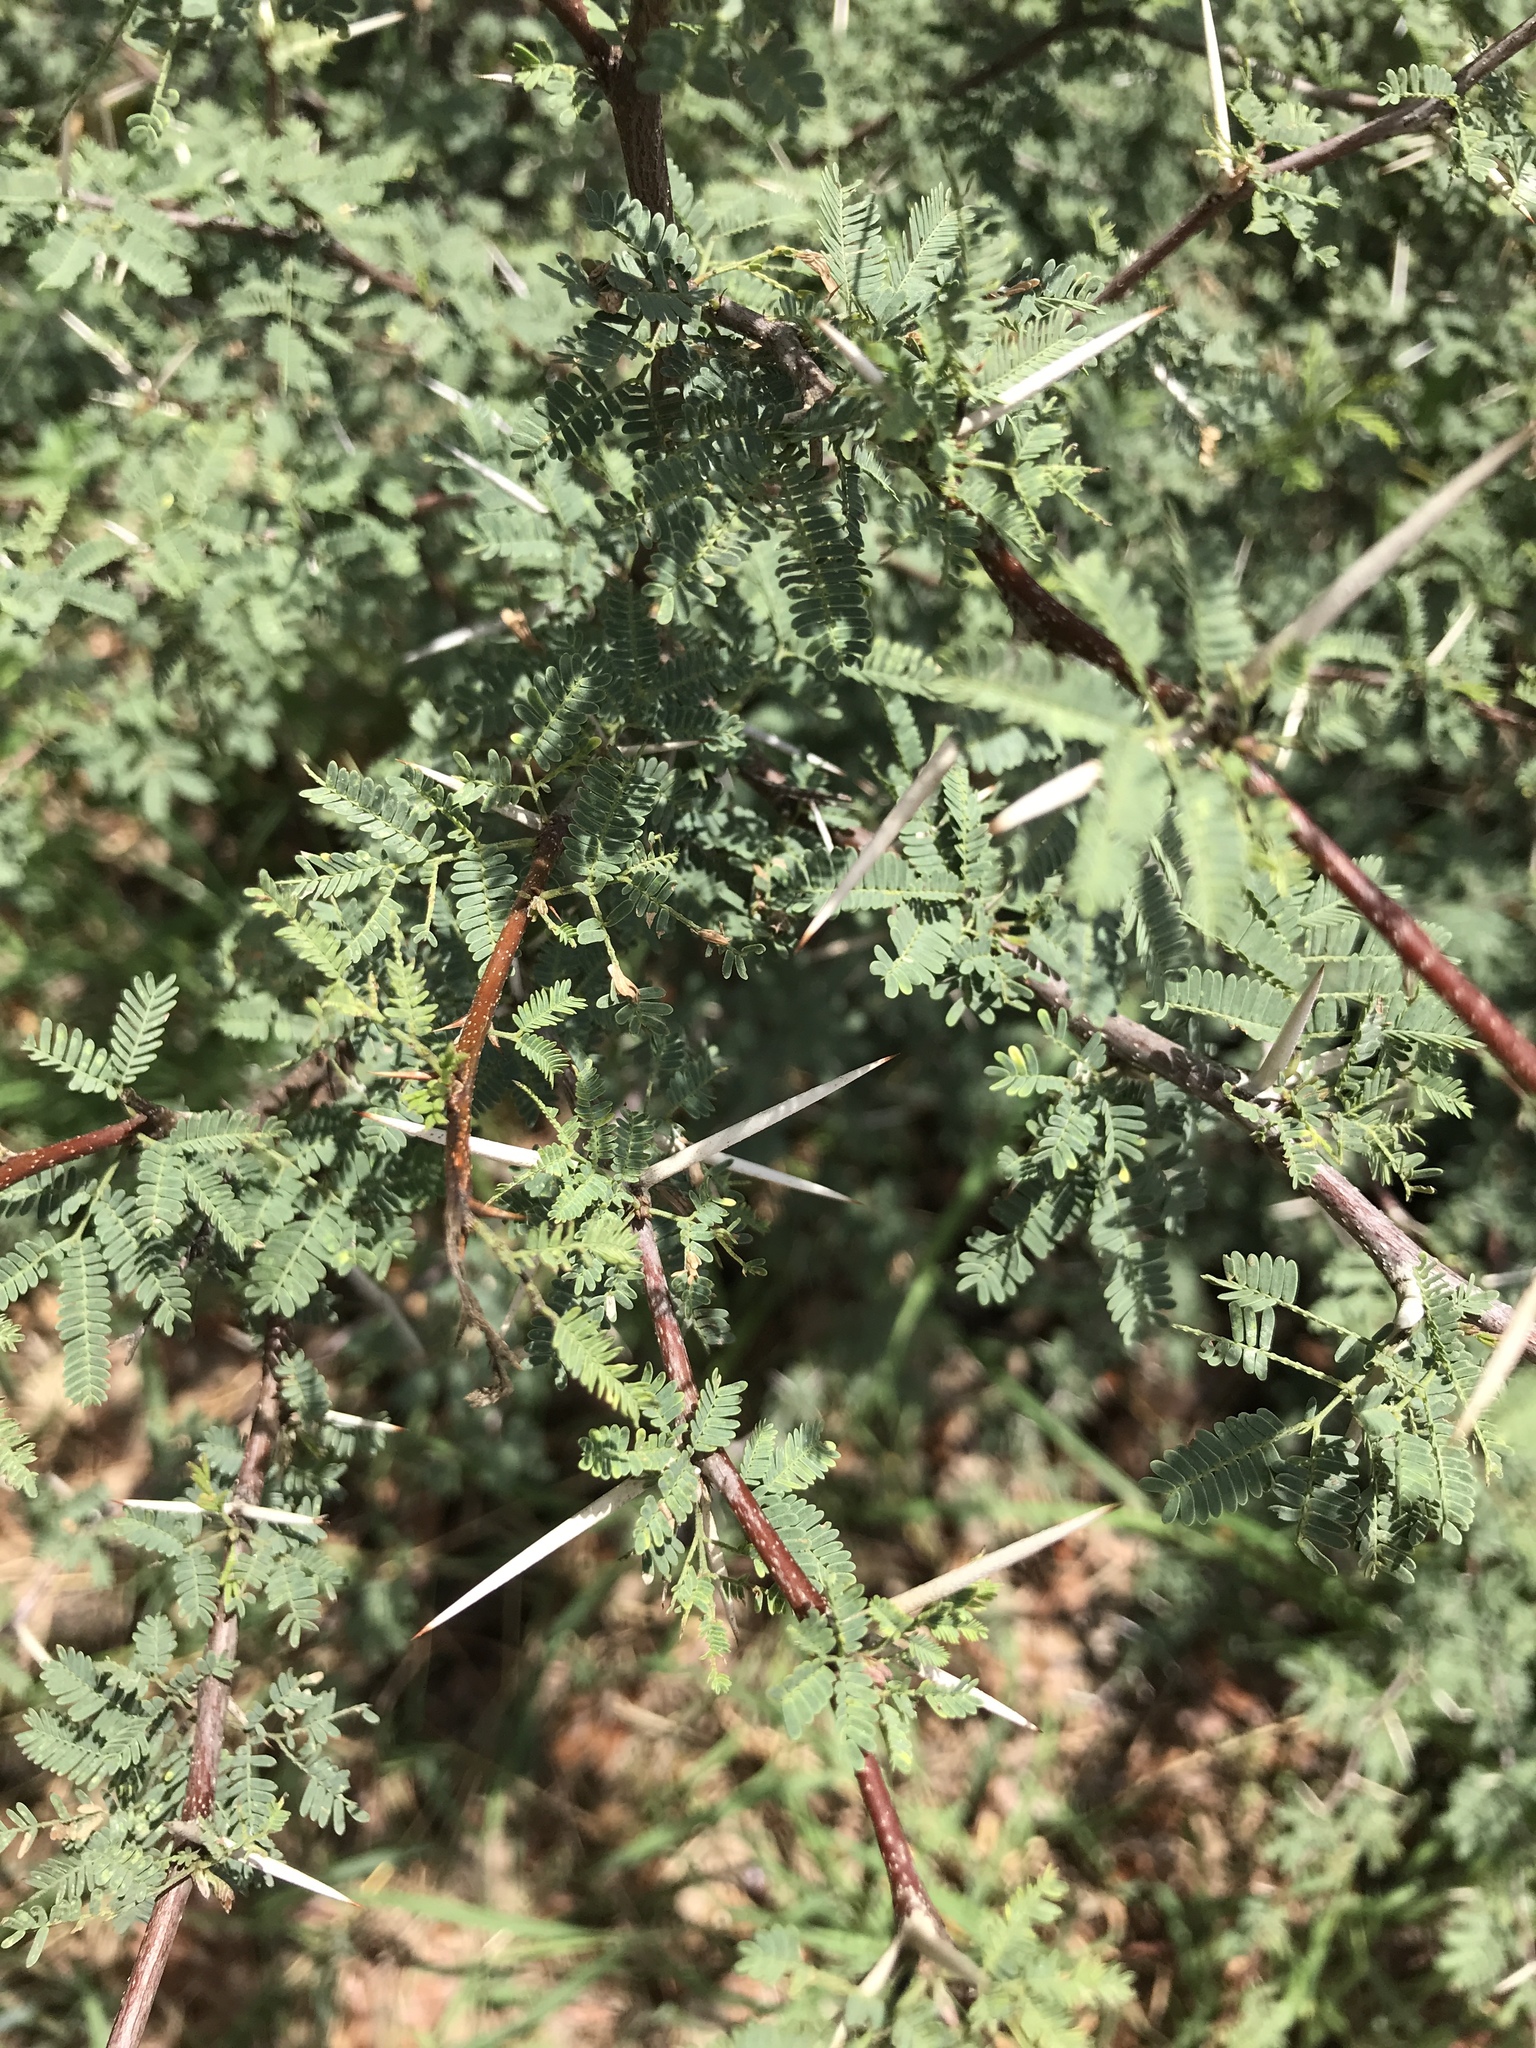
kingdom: Plantae
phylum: Tracheophyta
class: Magnoliopsida
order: Fabales
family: Fabaceae
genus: Vachellia
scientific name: Vachellia farnesiana
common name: Sweet acacia
